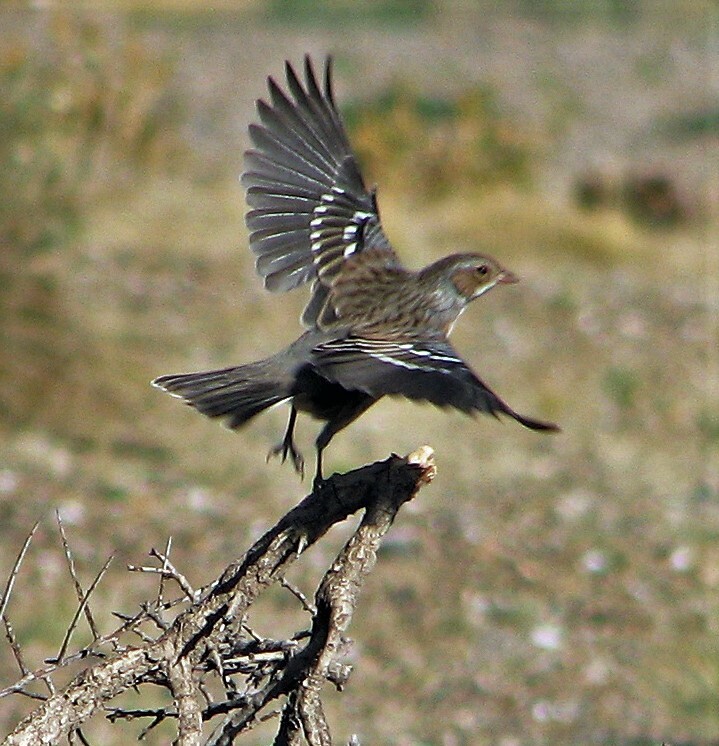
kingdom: Animalia
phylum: Chordata
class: Aves
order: Passeriformes
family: Thraupidae
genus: Rhopospina
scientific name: Rhopospina fruticeti
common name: Mourning sierra finch
